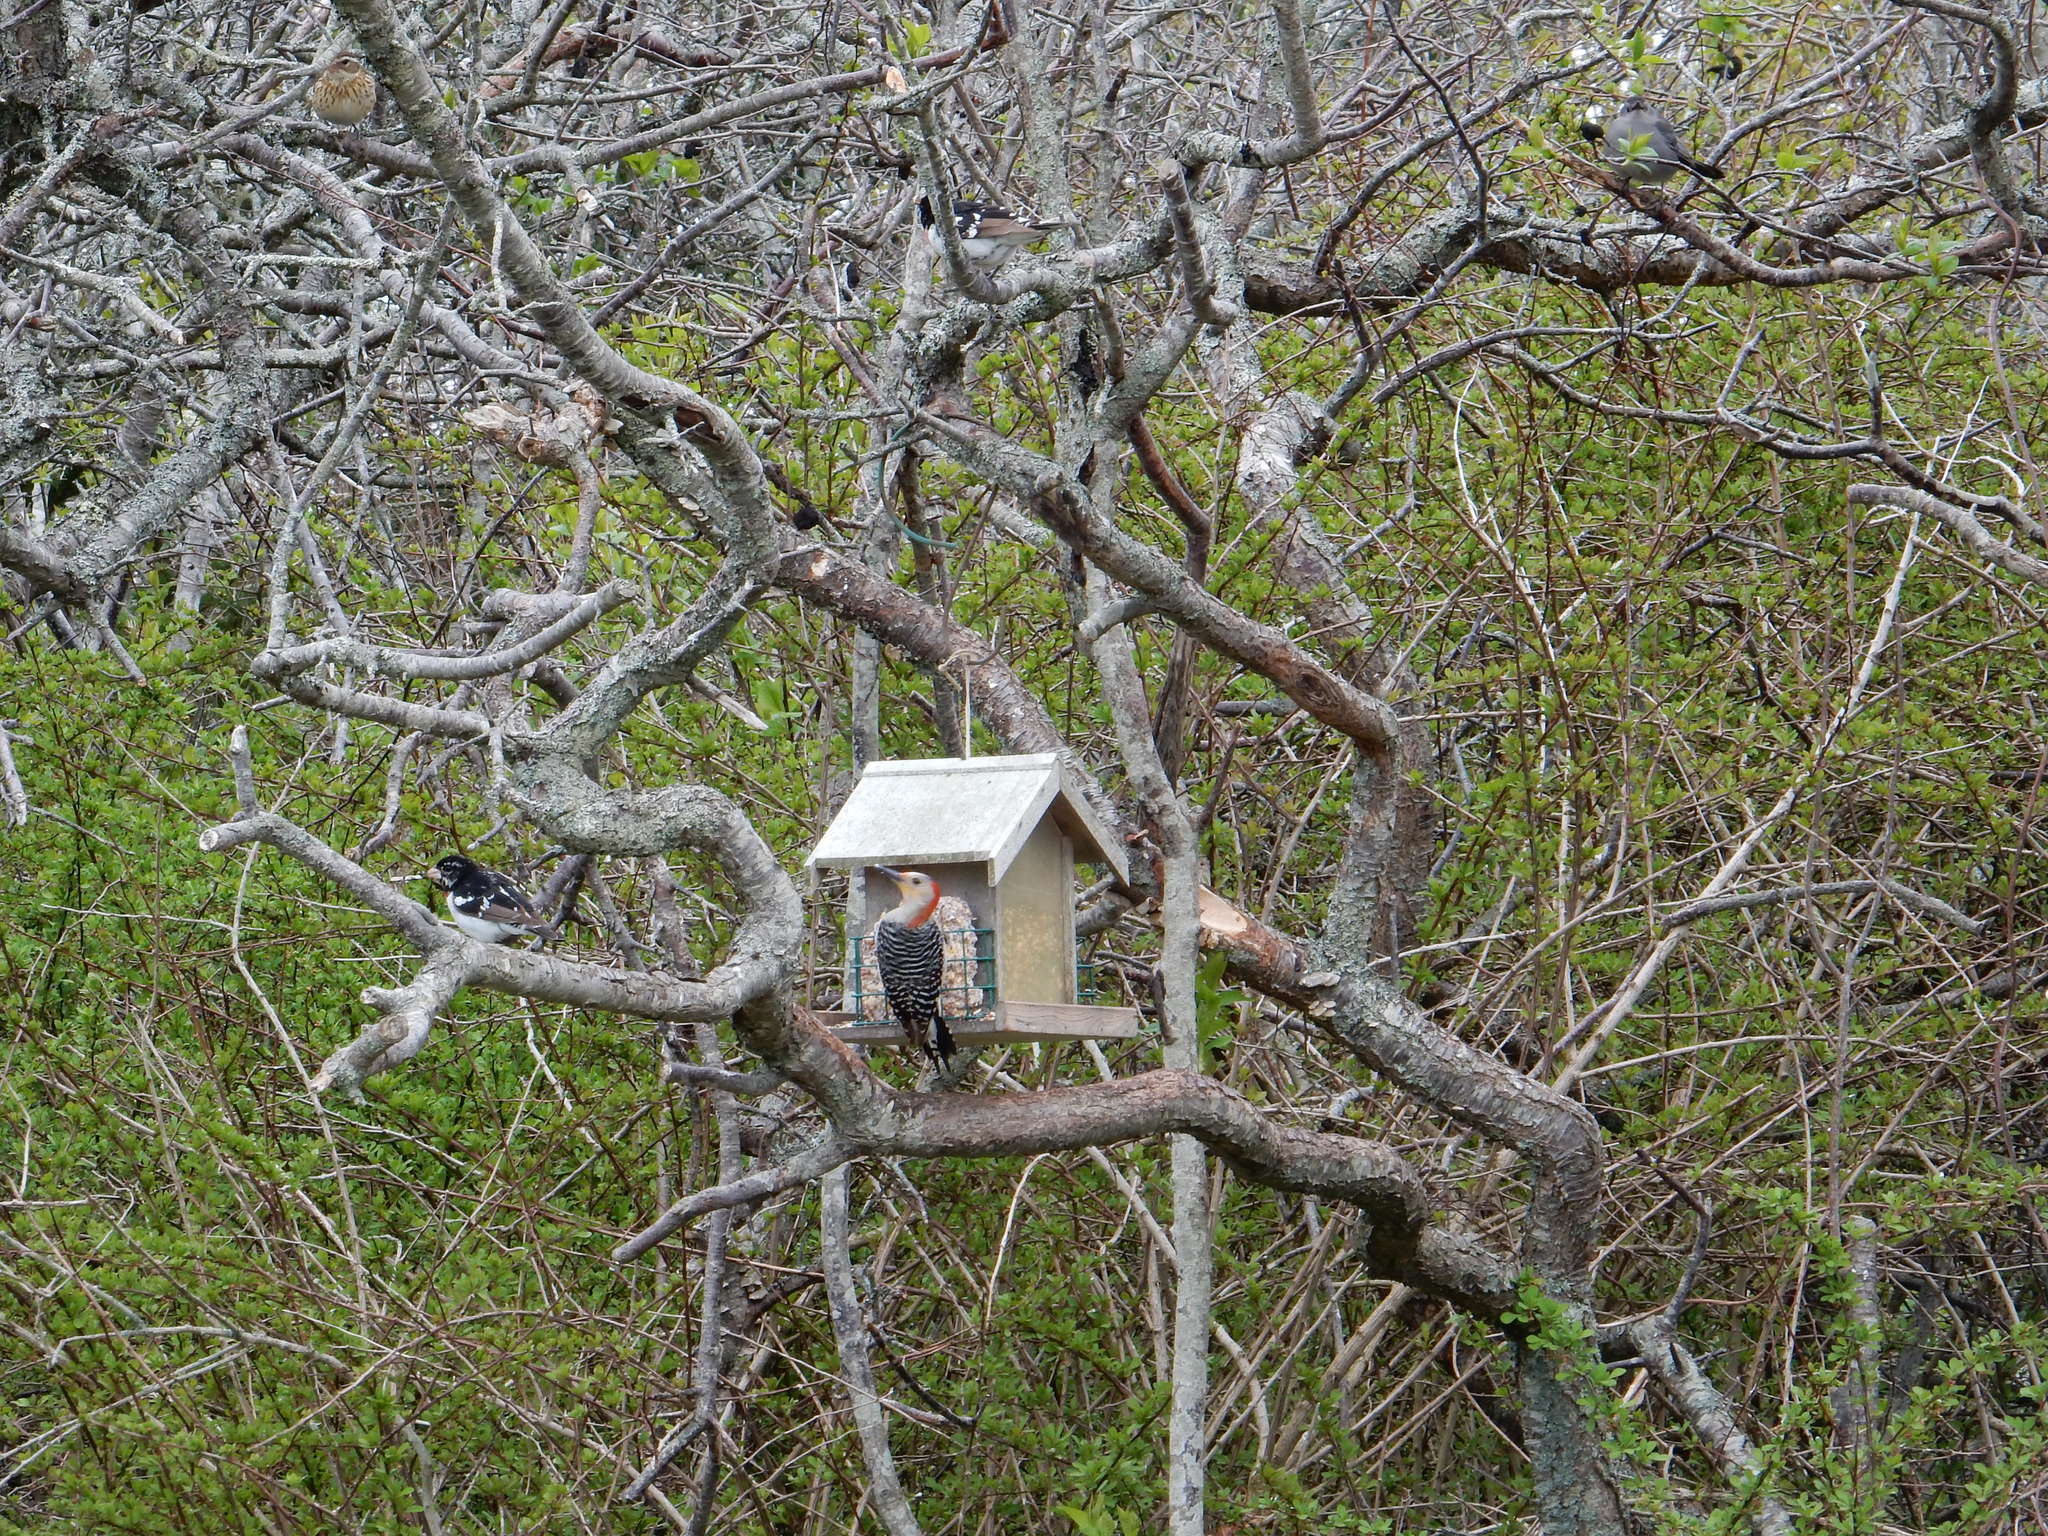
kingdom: Animalia
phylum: Chordata
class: Aves
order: Piciformes
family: Picidae
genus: Melanerpes
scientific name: Melanerpes carolinus
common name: Red-bellied woodpecker
